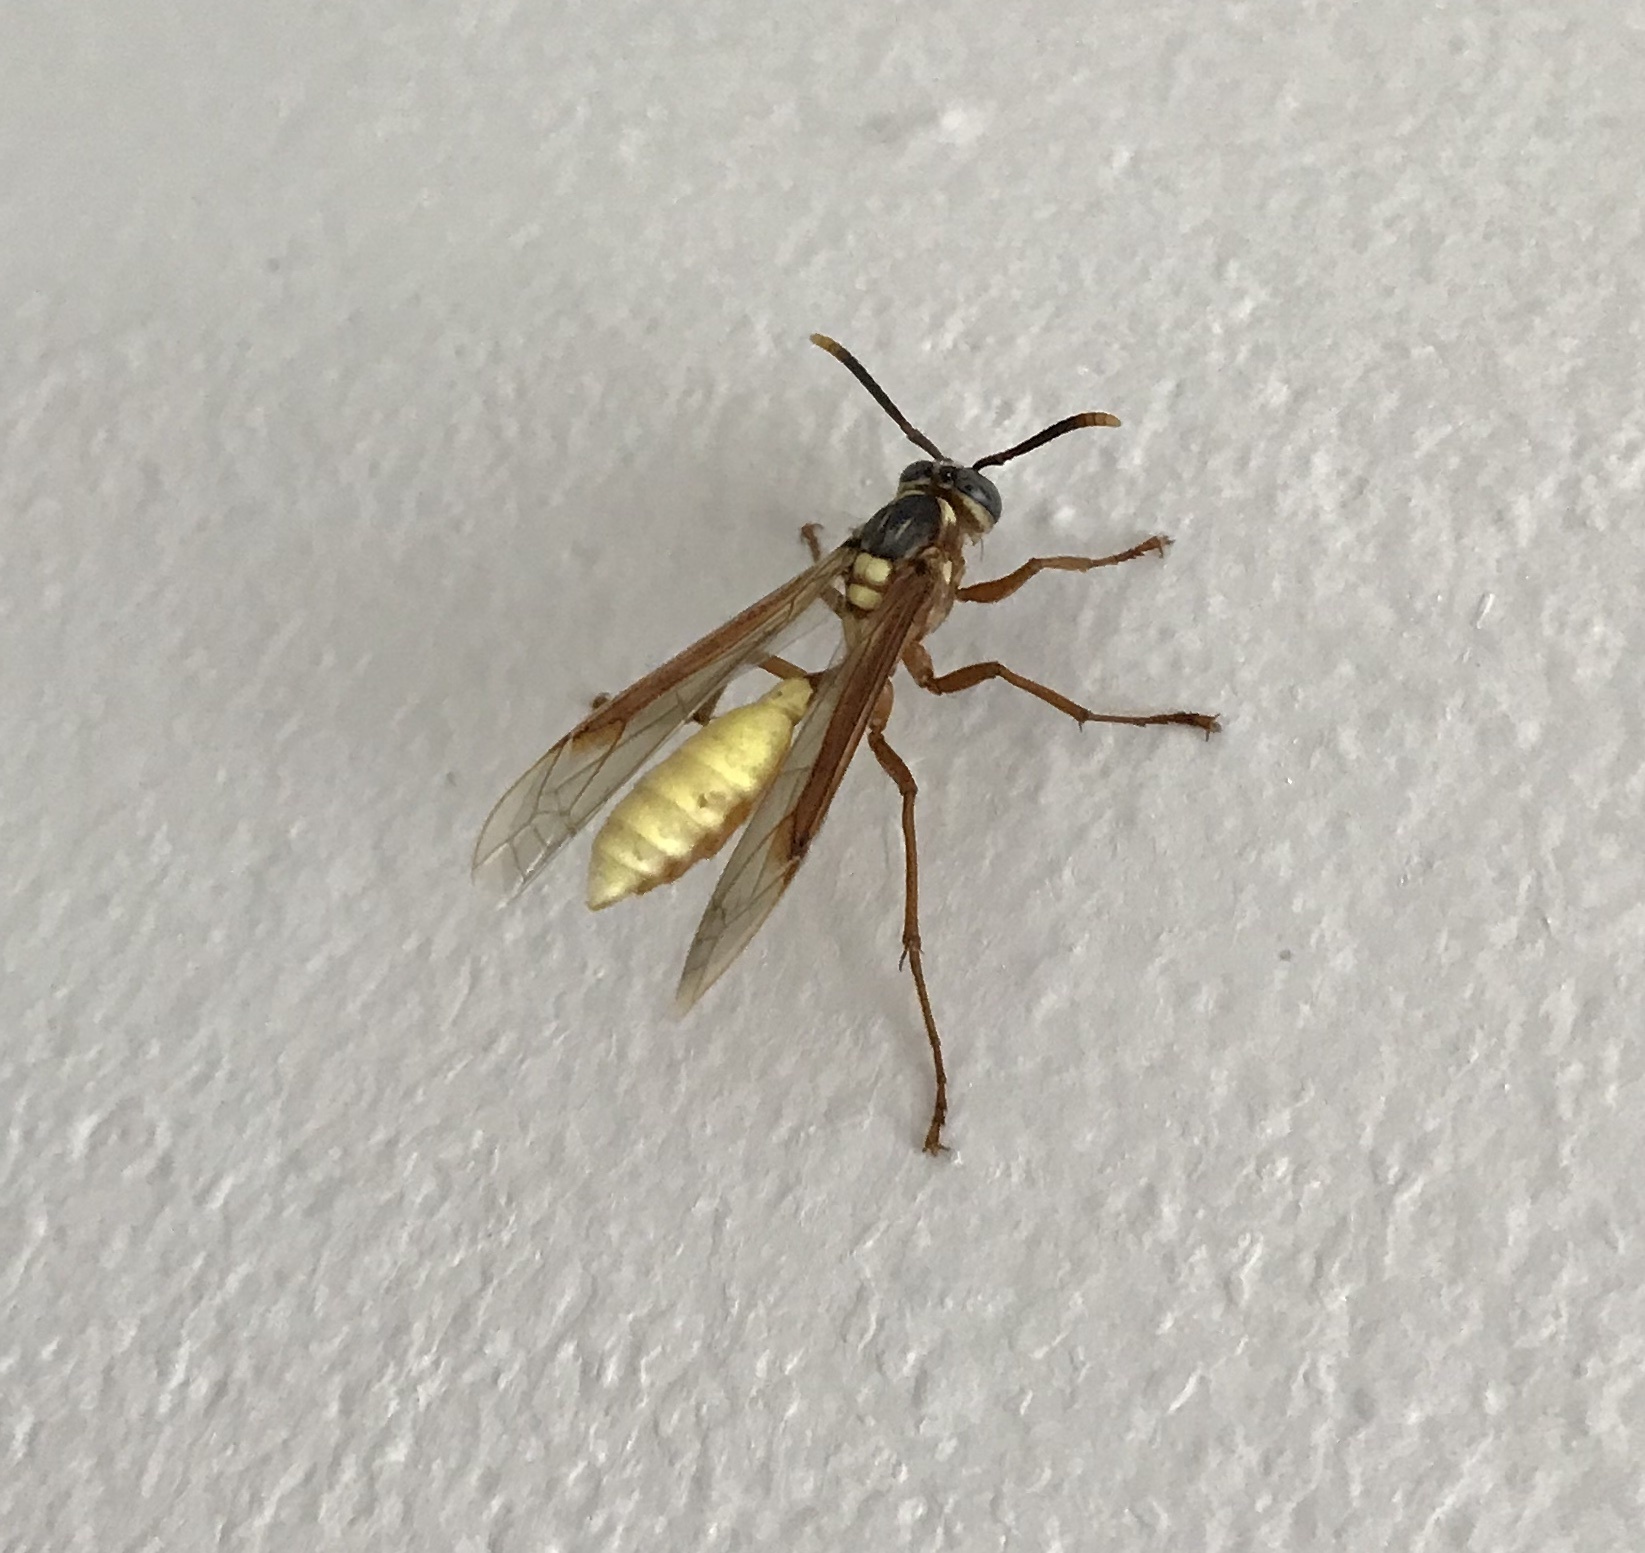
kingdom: Animalia
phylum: Arthropoda
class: Insecta
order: Hymenoptera
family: Vespidae
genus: Apoica
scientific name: Apoica pallens
